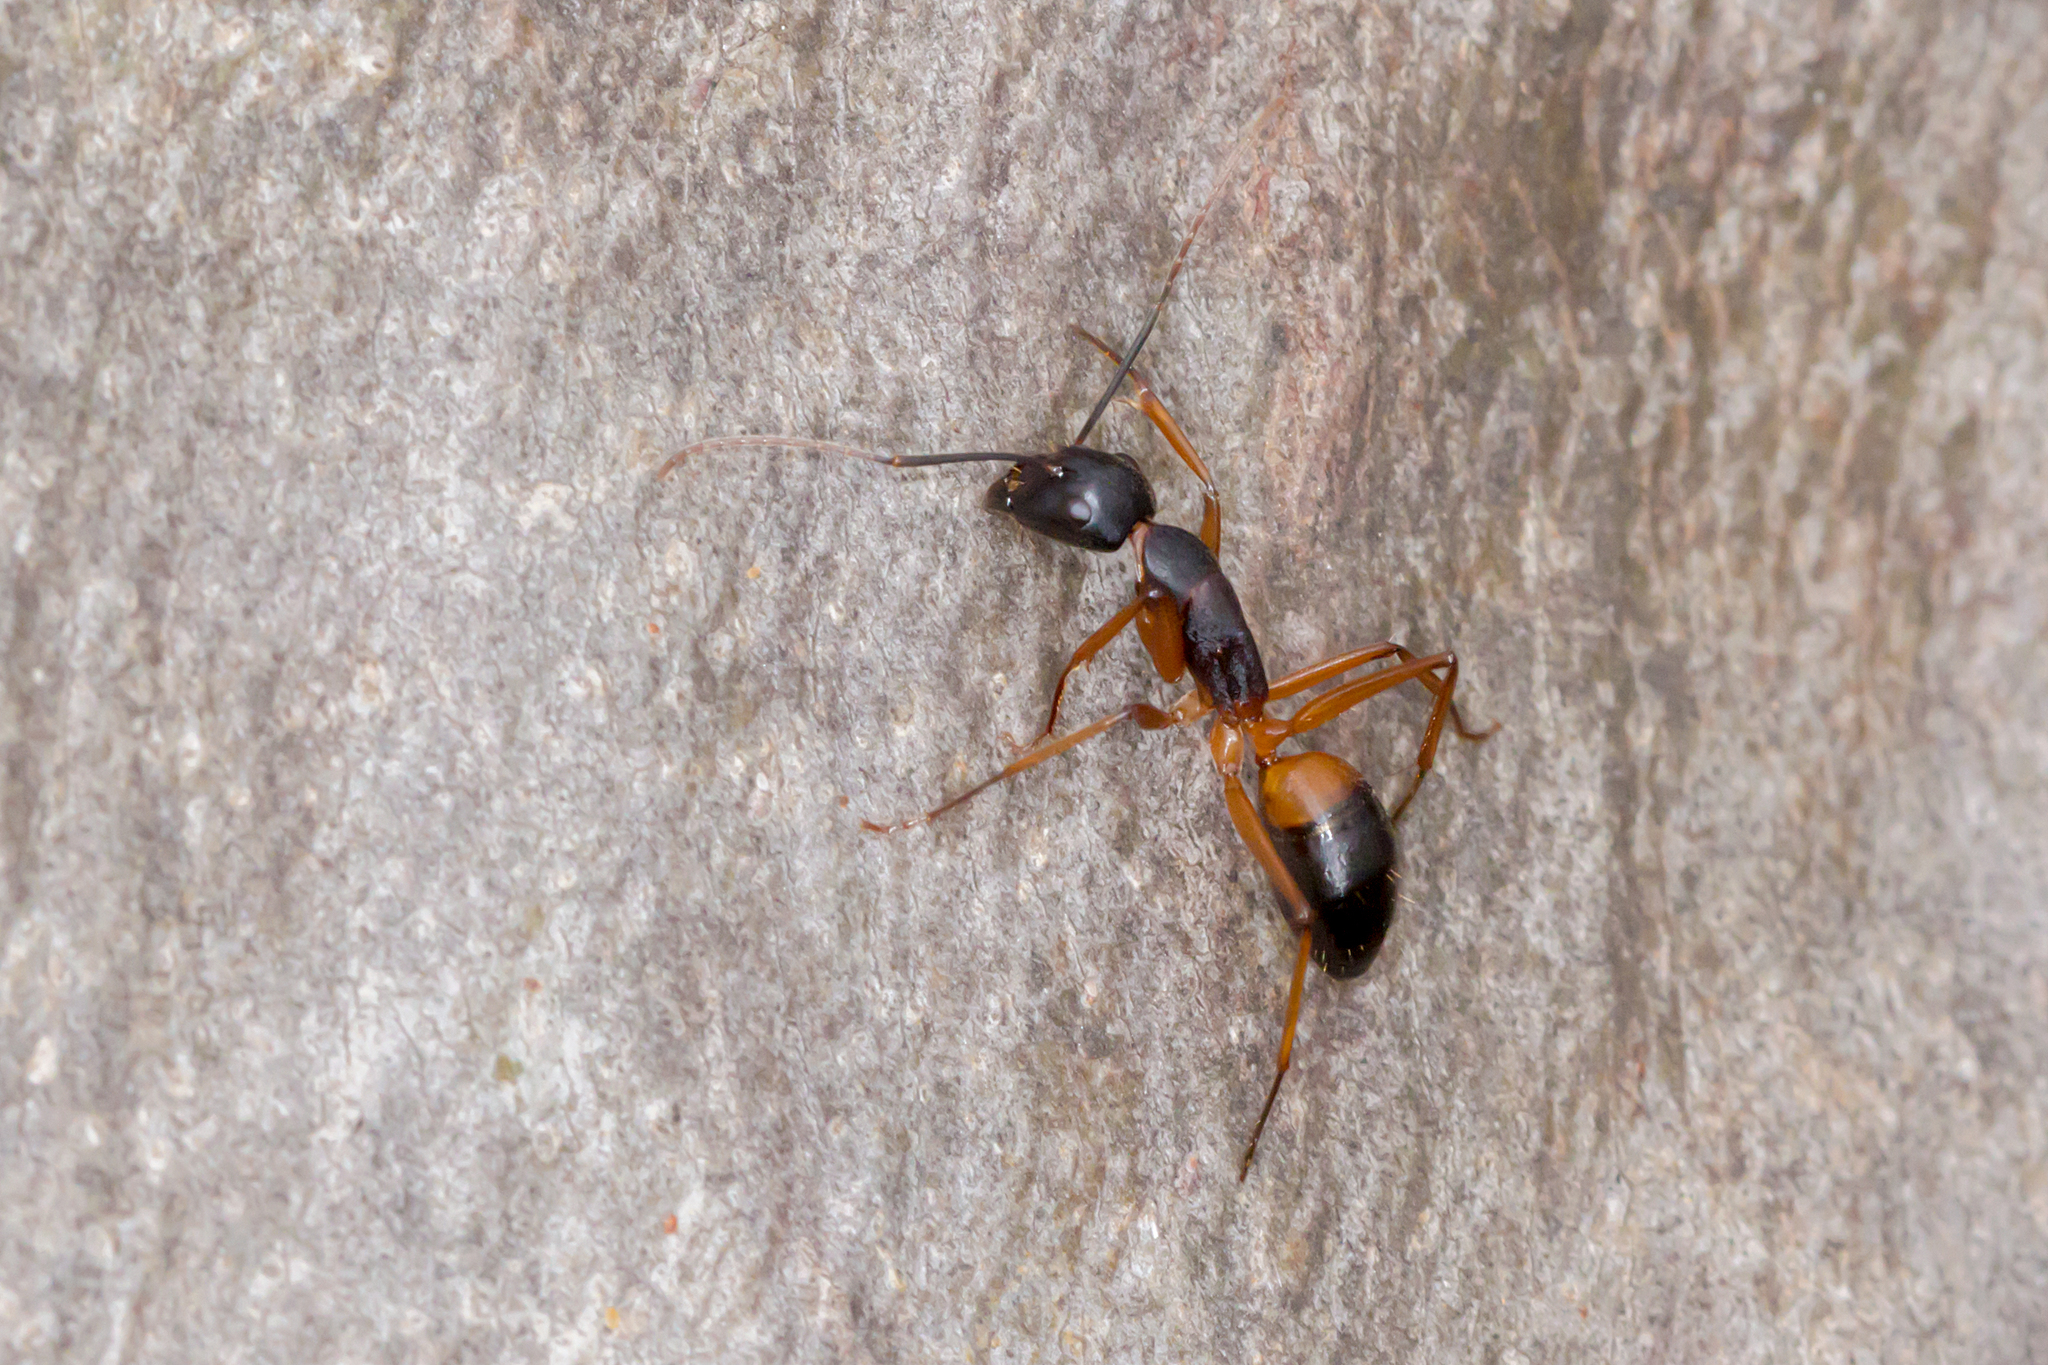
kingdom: Animalia
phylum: Arthropoda
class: Insecta
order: Hymenoptera
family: Formicidae
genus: Camponotus
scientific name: Camponotus consobrinus
